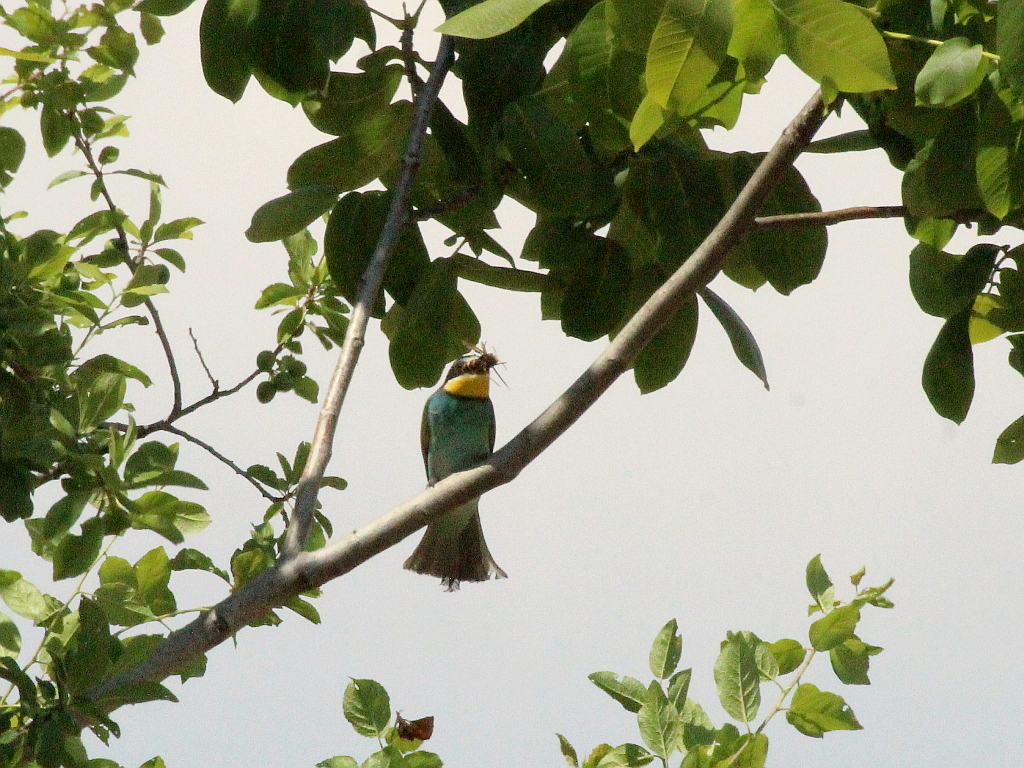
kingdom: Animalia
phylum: Chordata
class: Aves
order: Coraciiformes
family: Meropidae
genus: Merops
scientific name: Merops apiaster
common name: European bee-eater
